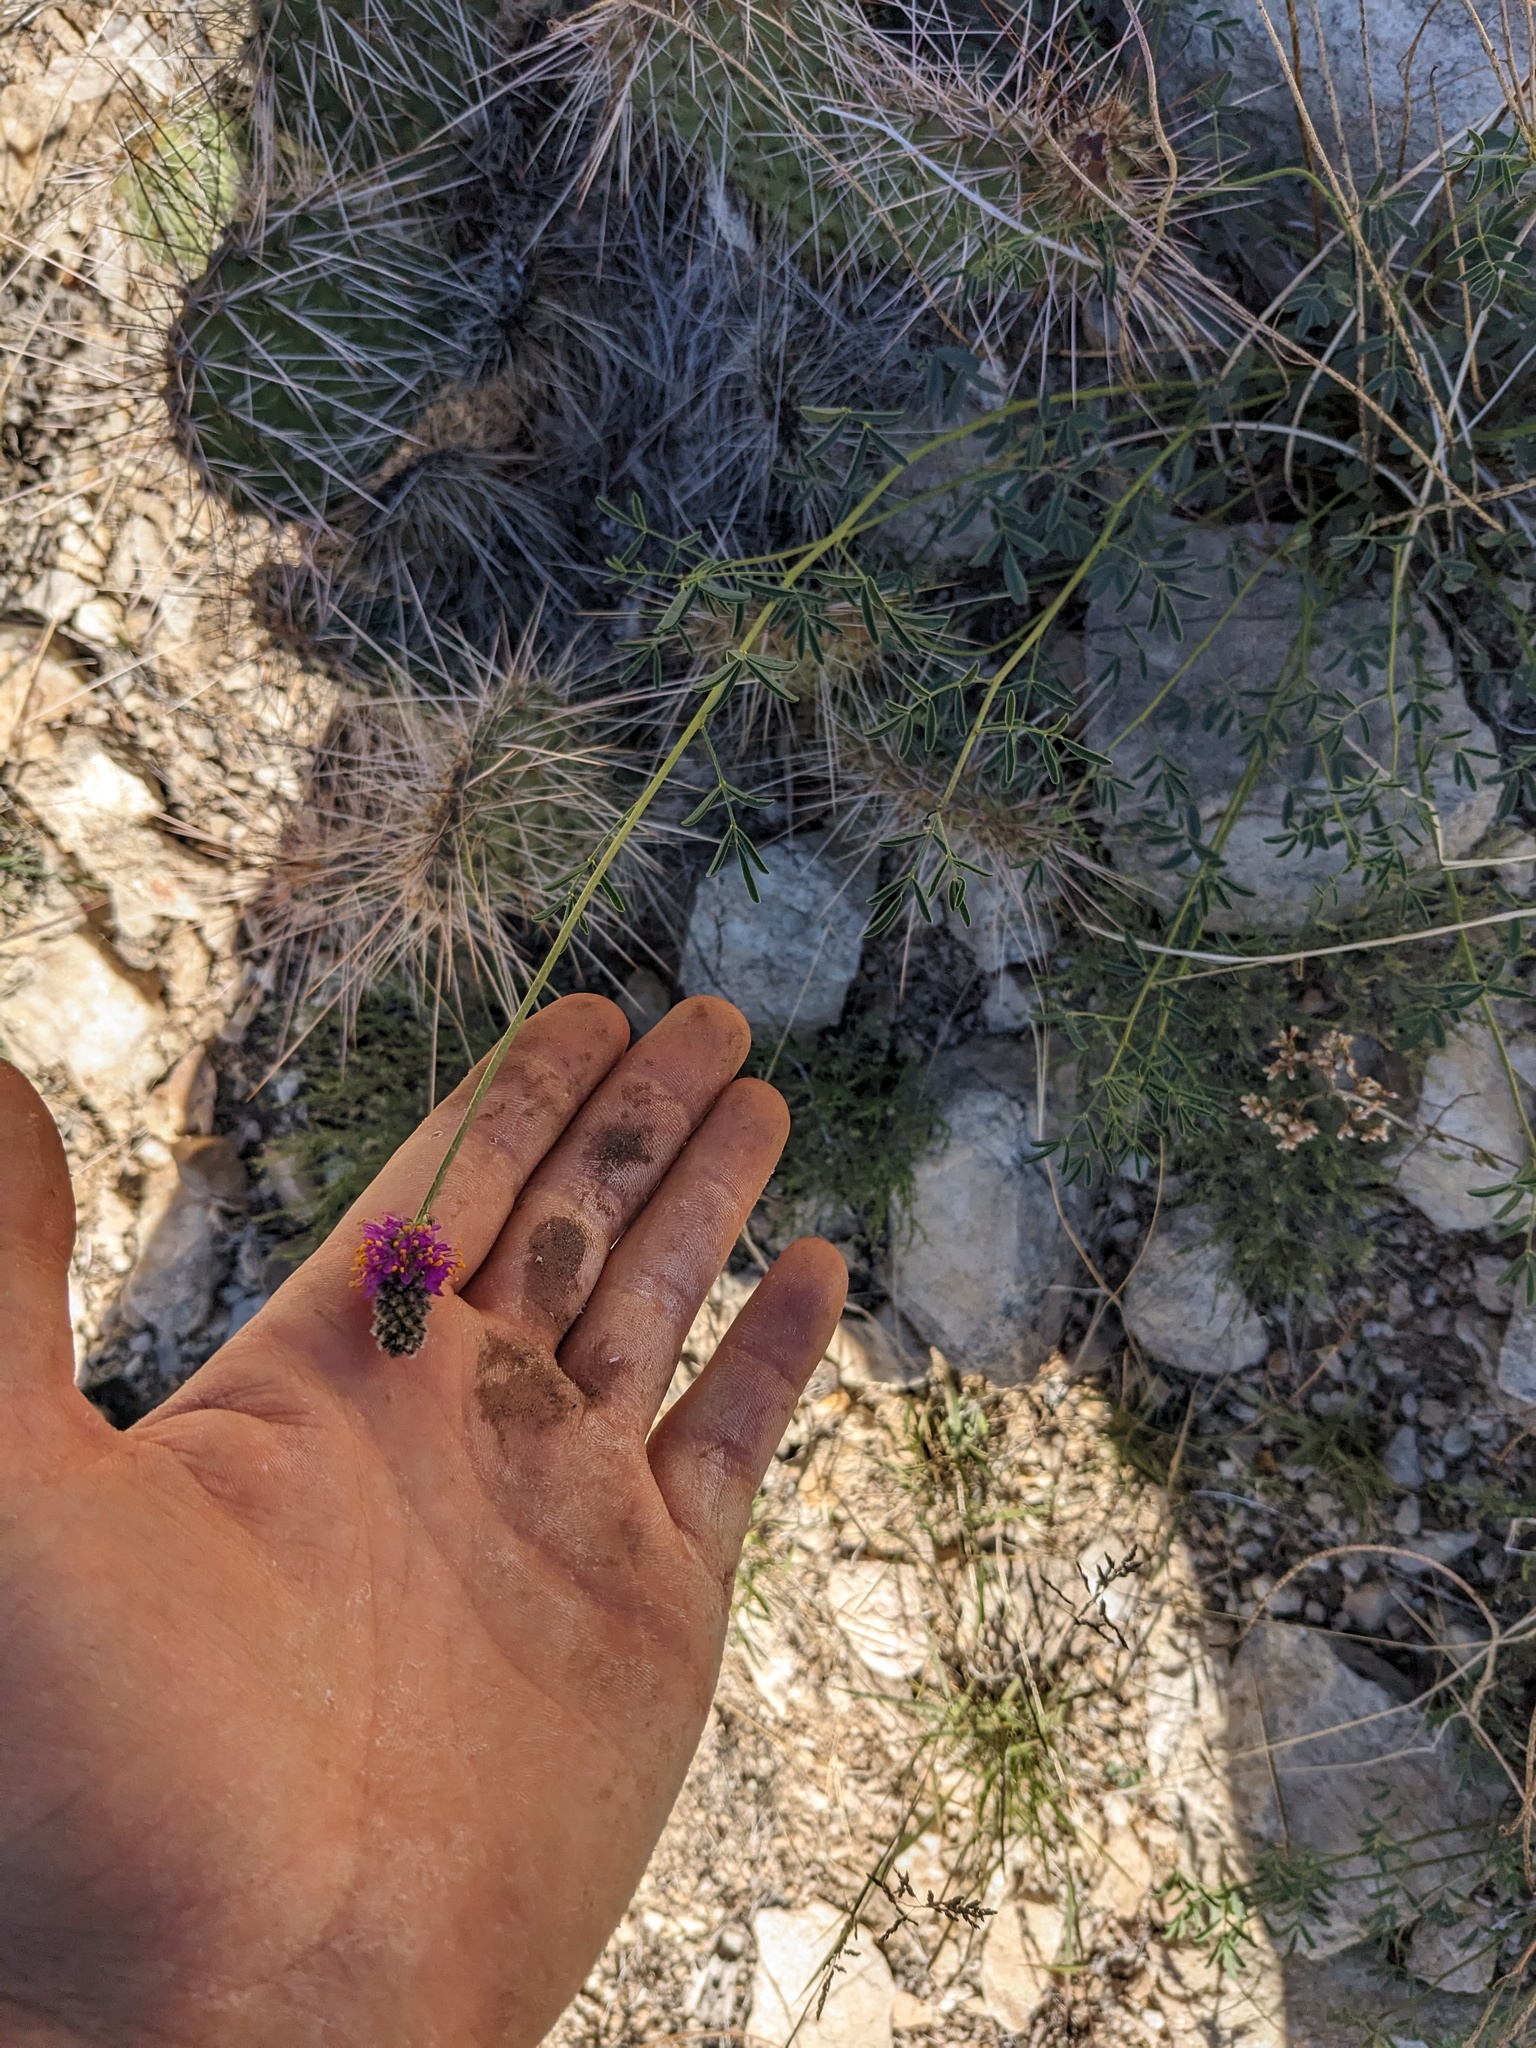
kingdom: Plantae
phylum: Tracheophyta
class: Magnoliopsida
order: Fabales
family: Fabaceae
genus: Dalea
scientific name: Dalea searlsiae
